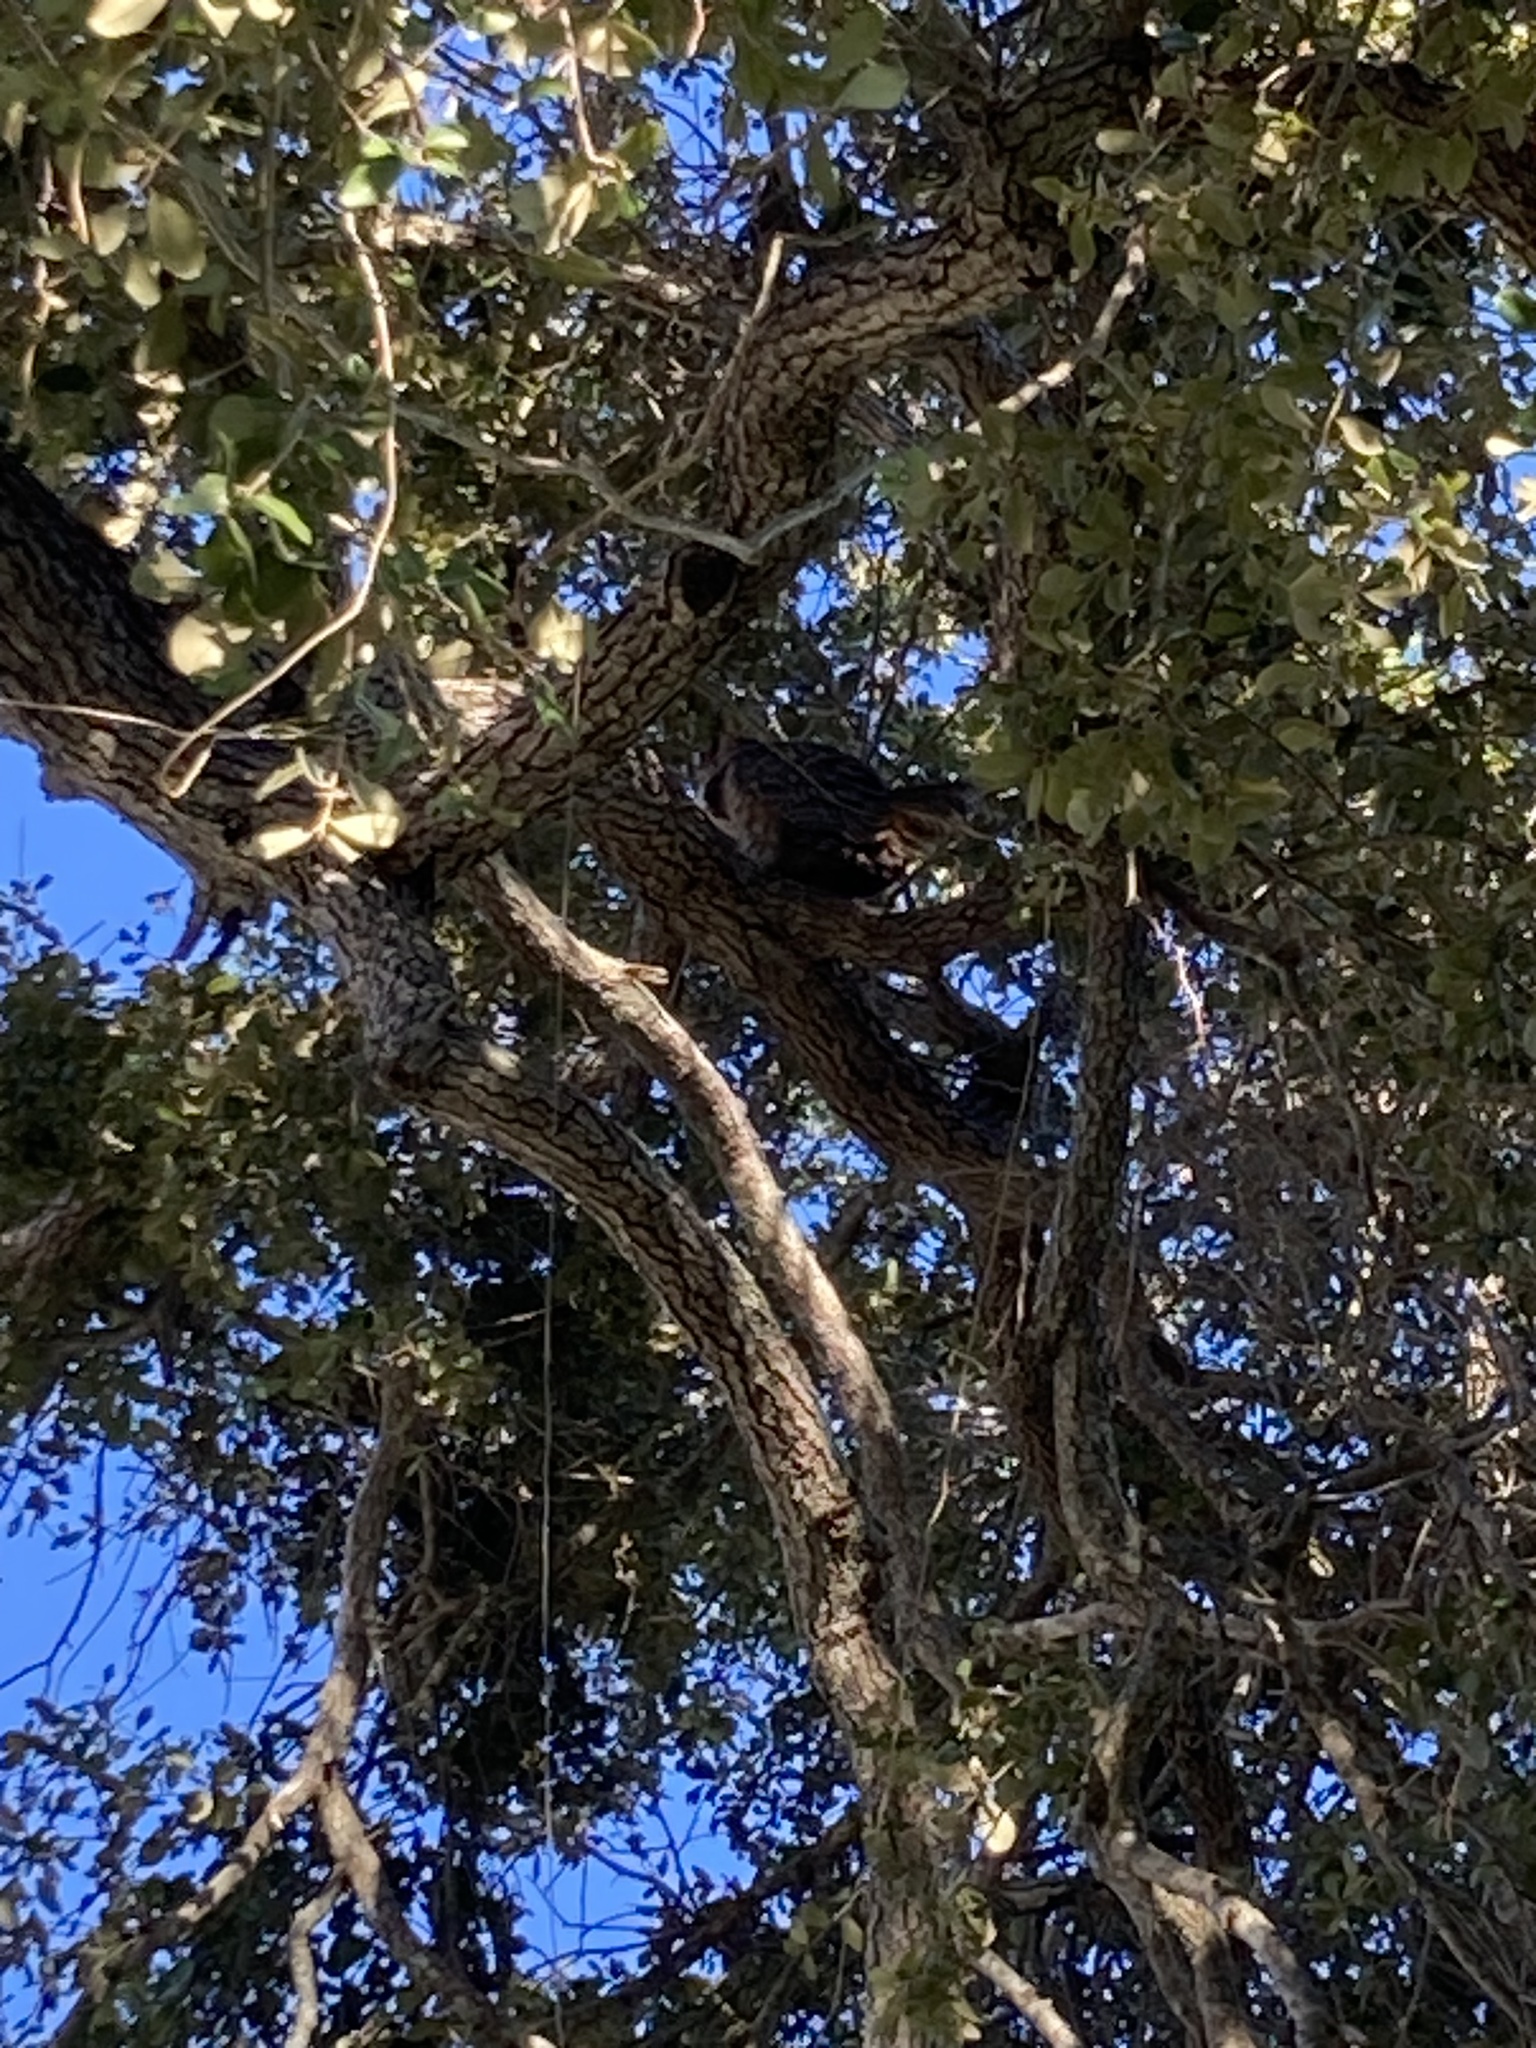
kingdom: Animalia
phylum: Chordata
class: Aves
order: Strigiformes
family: Strigidae
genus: Bubo
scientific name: Bubo virginianus
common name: Great horned owl
